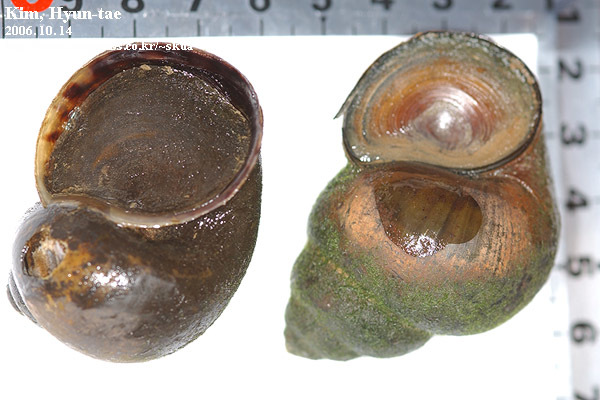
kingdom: Animalia
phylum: Mollusca
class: Gastropoda
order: Architaenioglossa
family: Viviparidae
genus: Cipangopaludina
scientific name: Cipangopaludina chinensis
